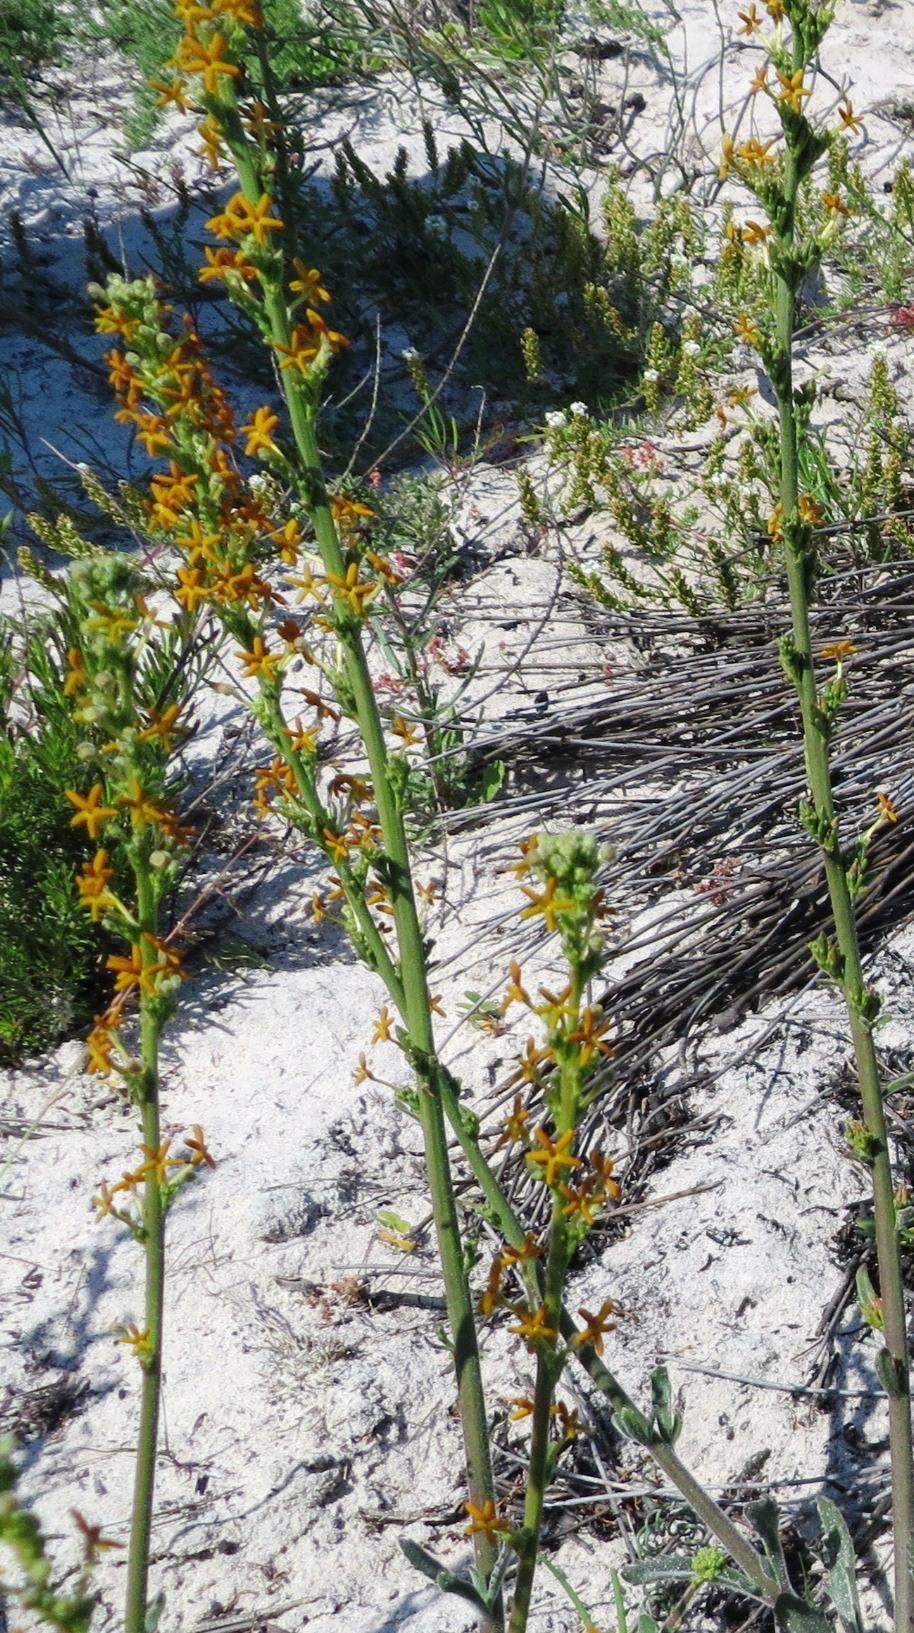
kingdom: Plantae
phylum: Tracheophyta
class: Magnoliopsida
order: Lamiales
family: Scrophulariaceae
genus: Manulea
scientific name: Manulea tomentosa
